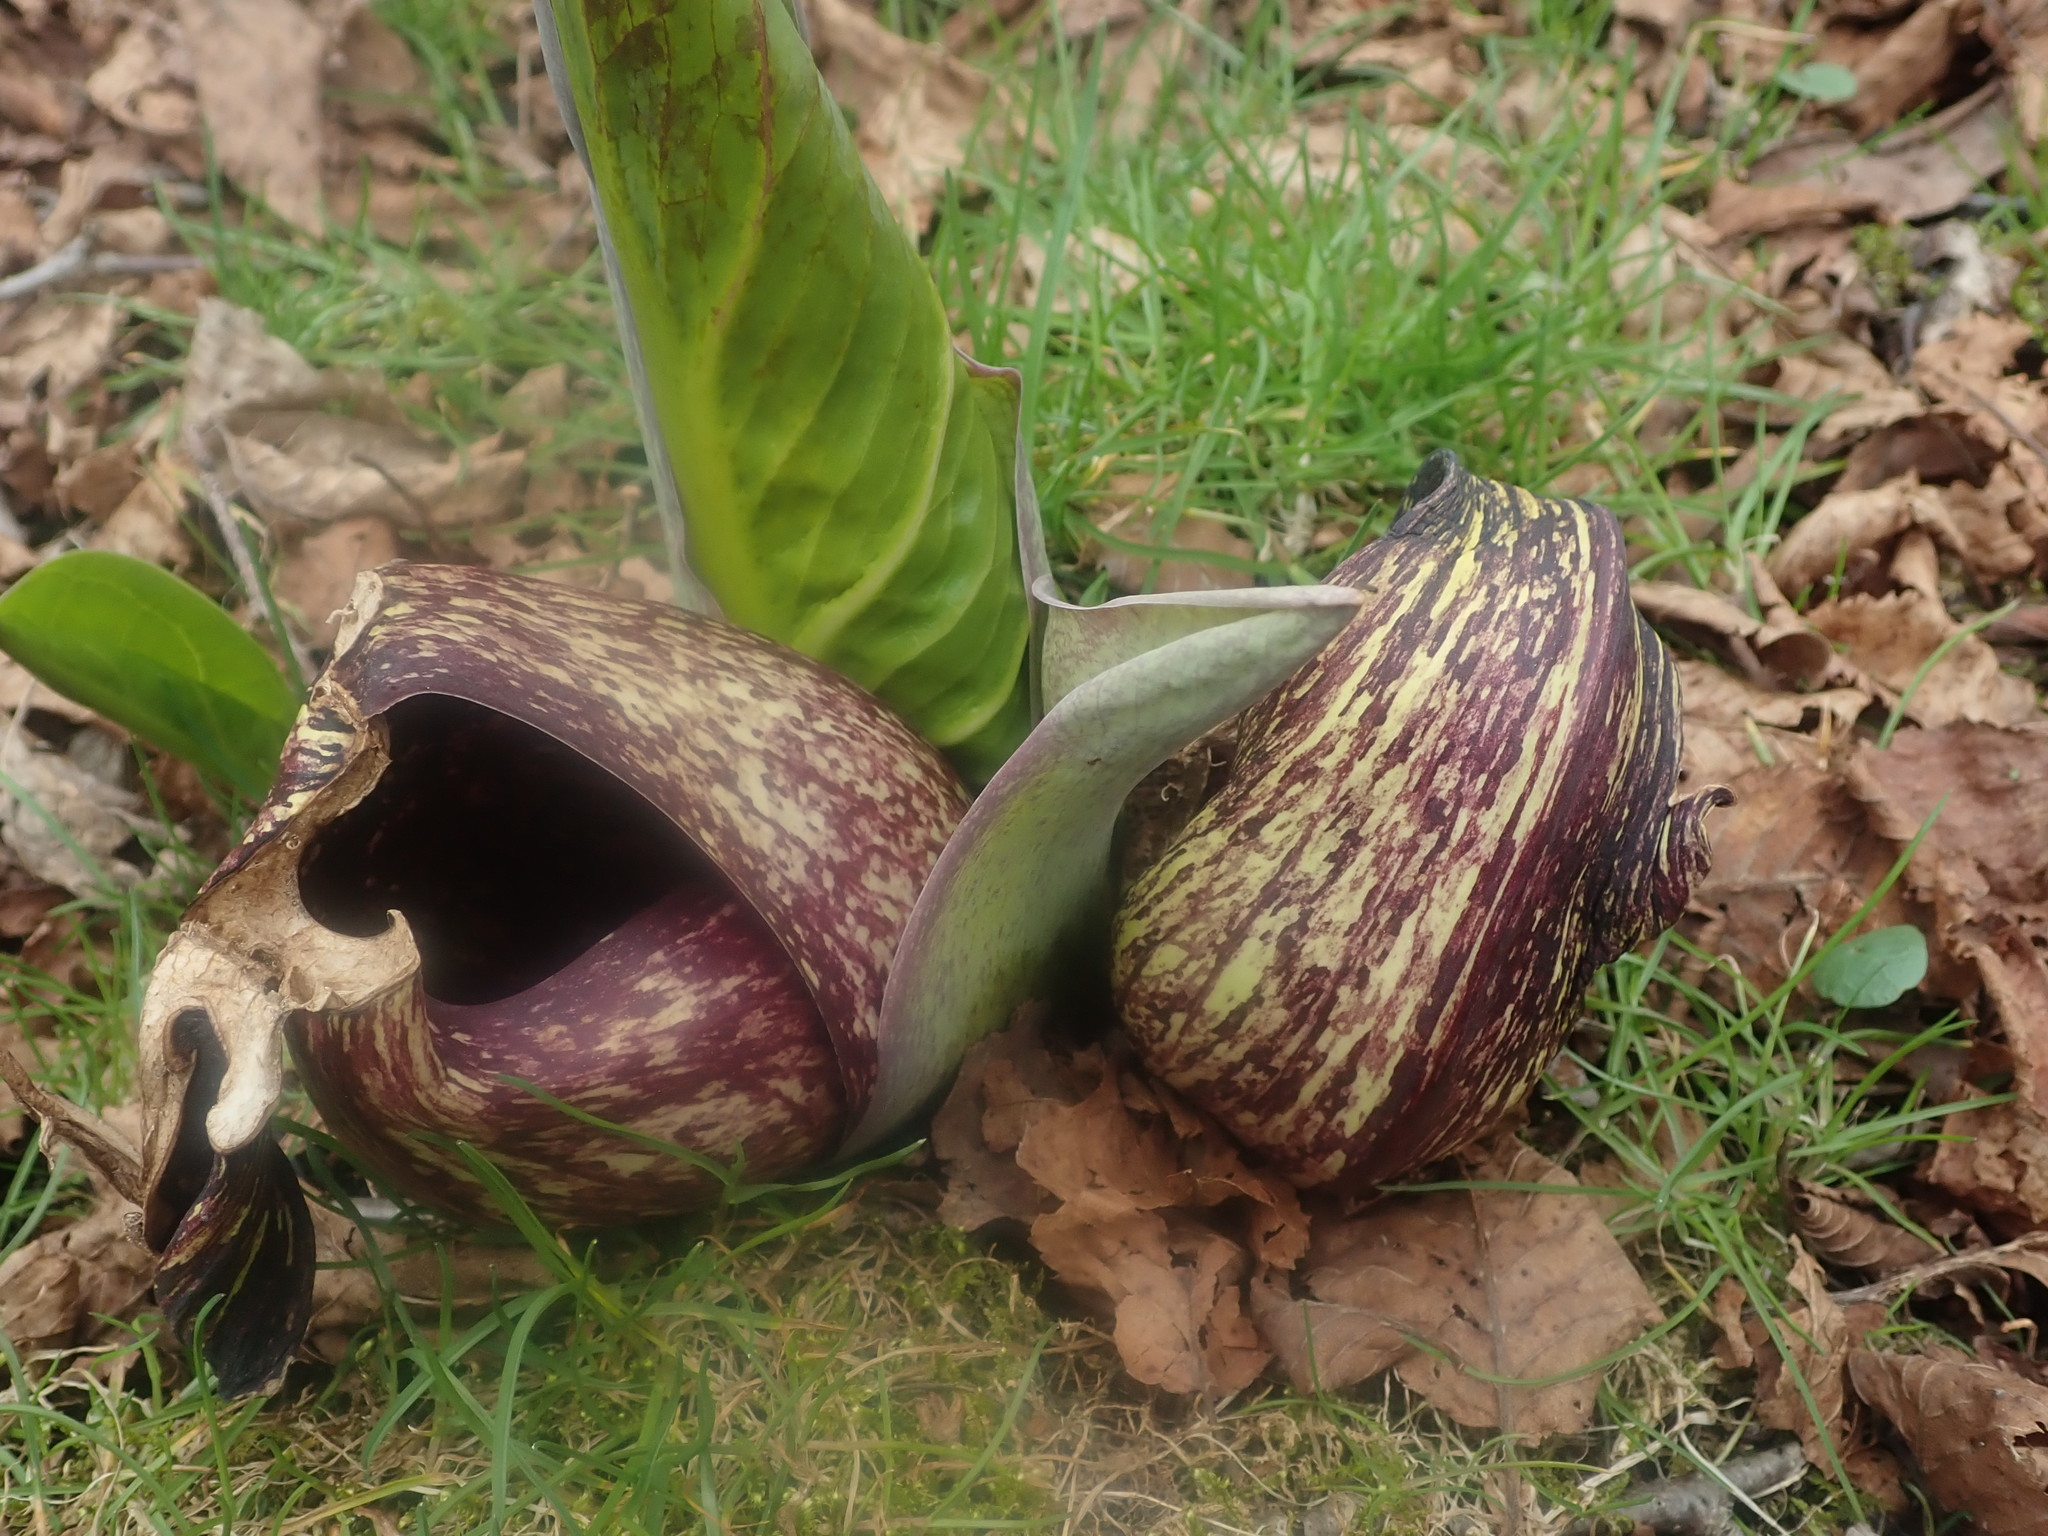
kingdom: Plantae
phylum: Tracheophyta
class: Liliopsida
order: Alismatales
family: Araceae
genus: Symplocarpus
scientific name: Symplocarpus foetidus
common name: Eastern skunk cabbage
